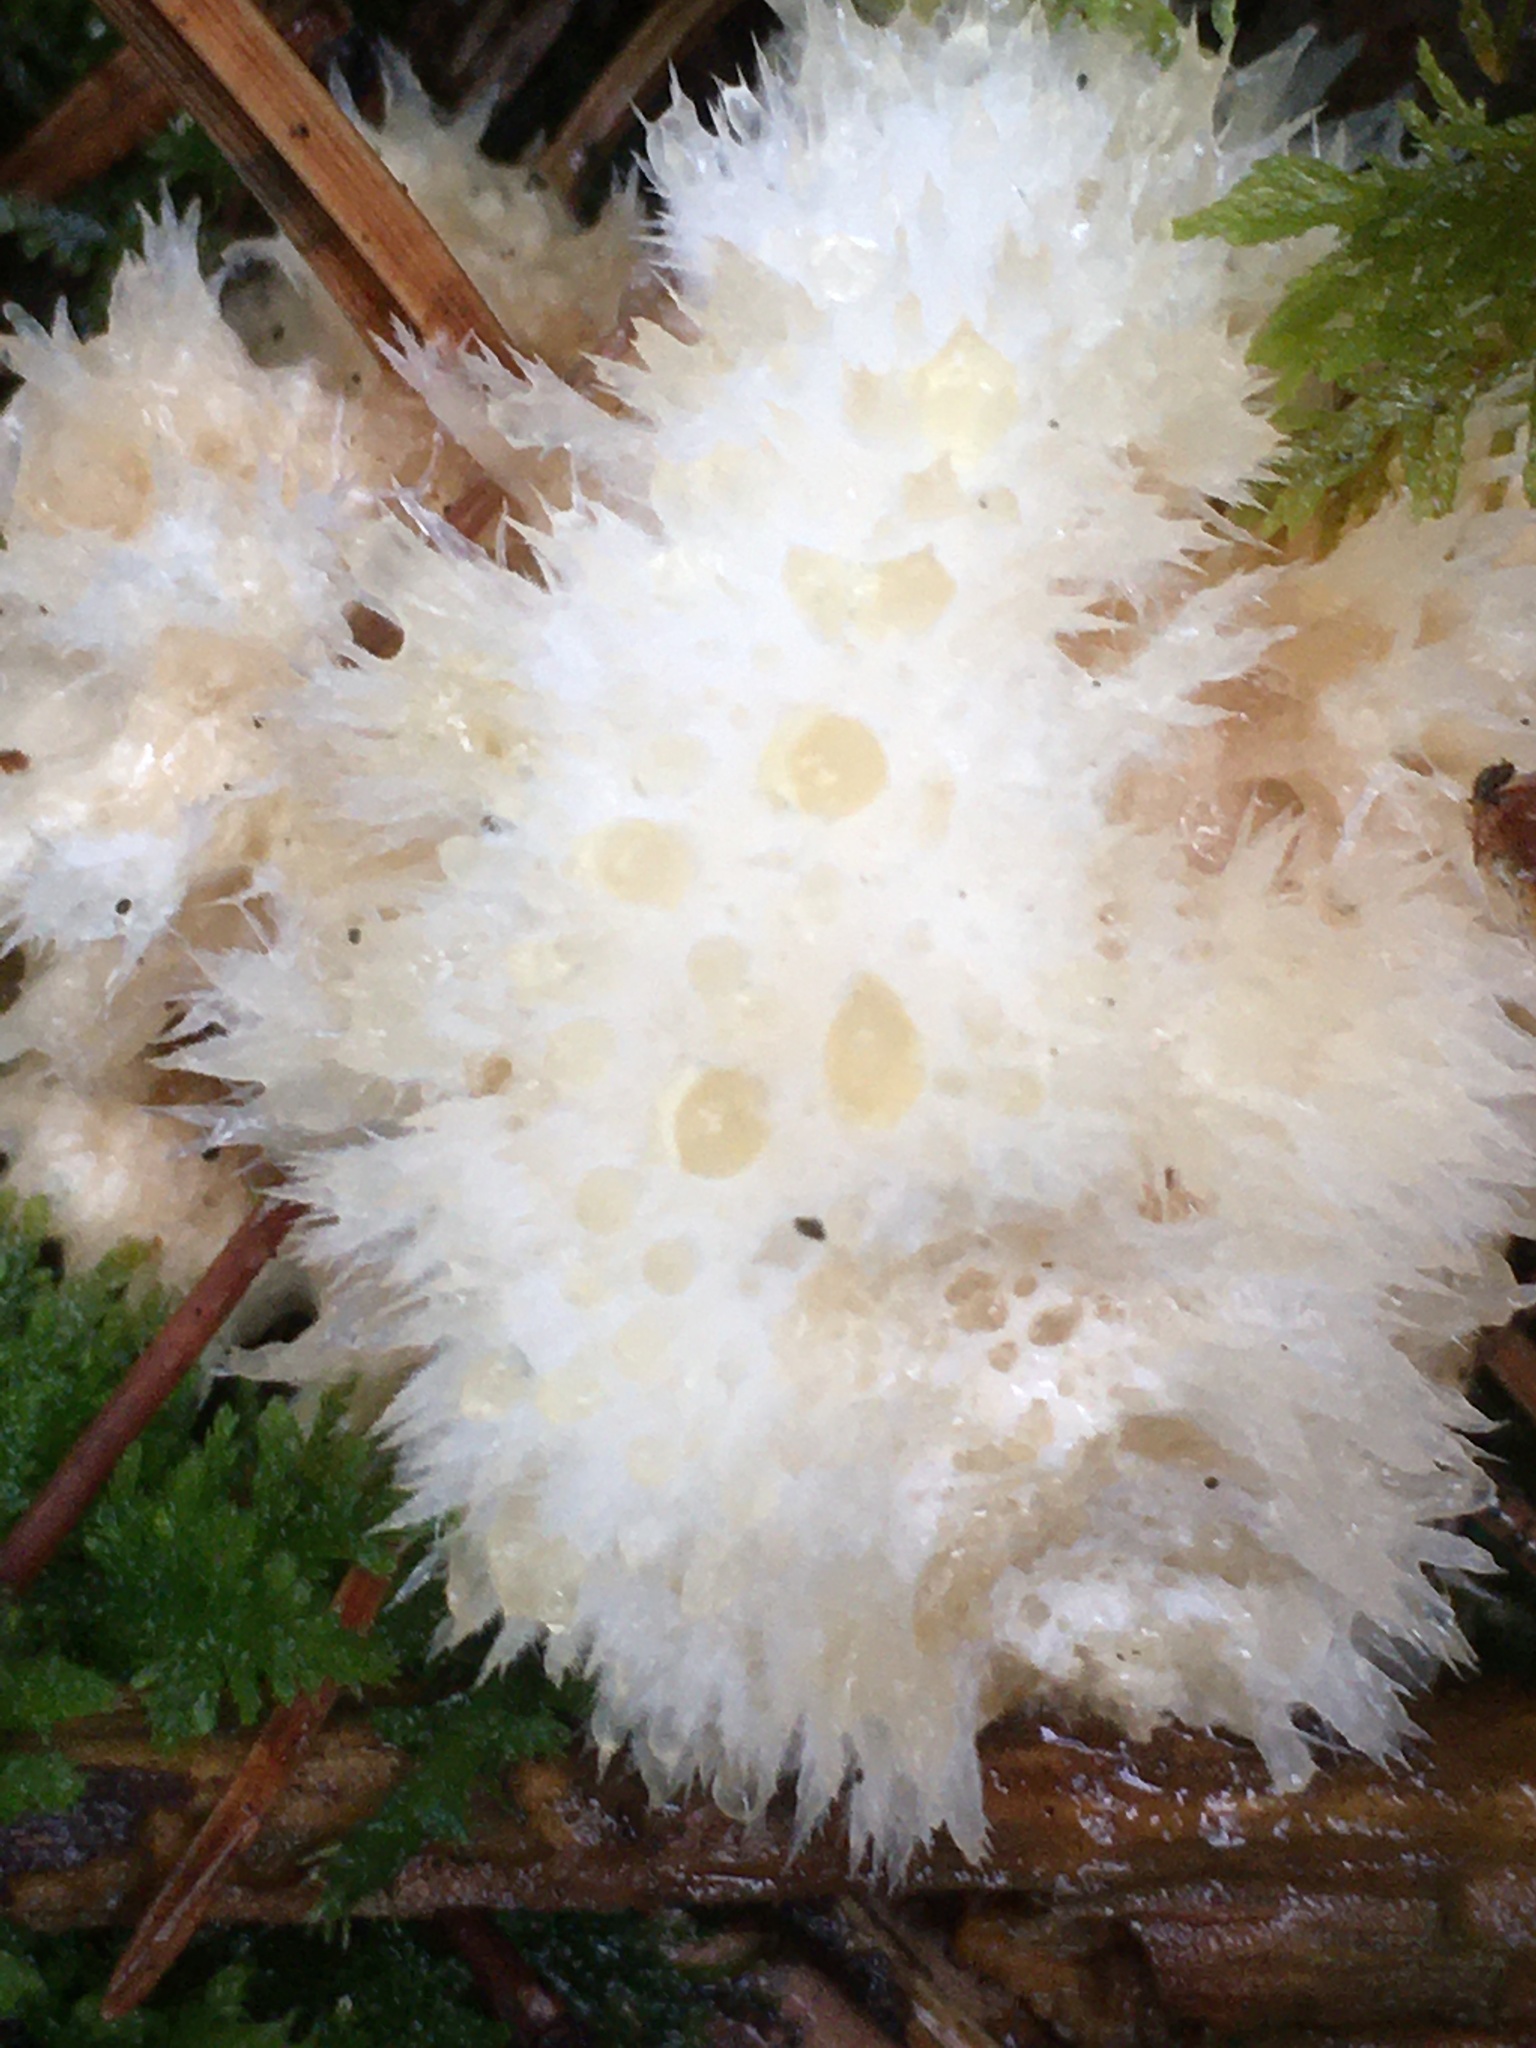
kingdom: Fungi
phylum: Basidiomycota
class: Agaricomycetes
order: Polyporales
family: Dacryobolaceae
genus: Postia
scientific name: Postia ptychogaster
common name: Powderpuff bracket
